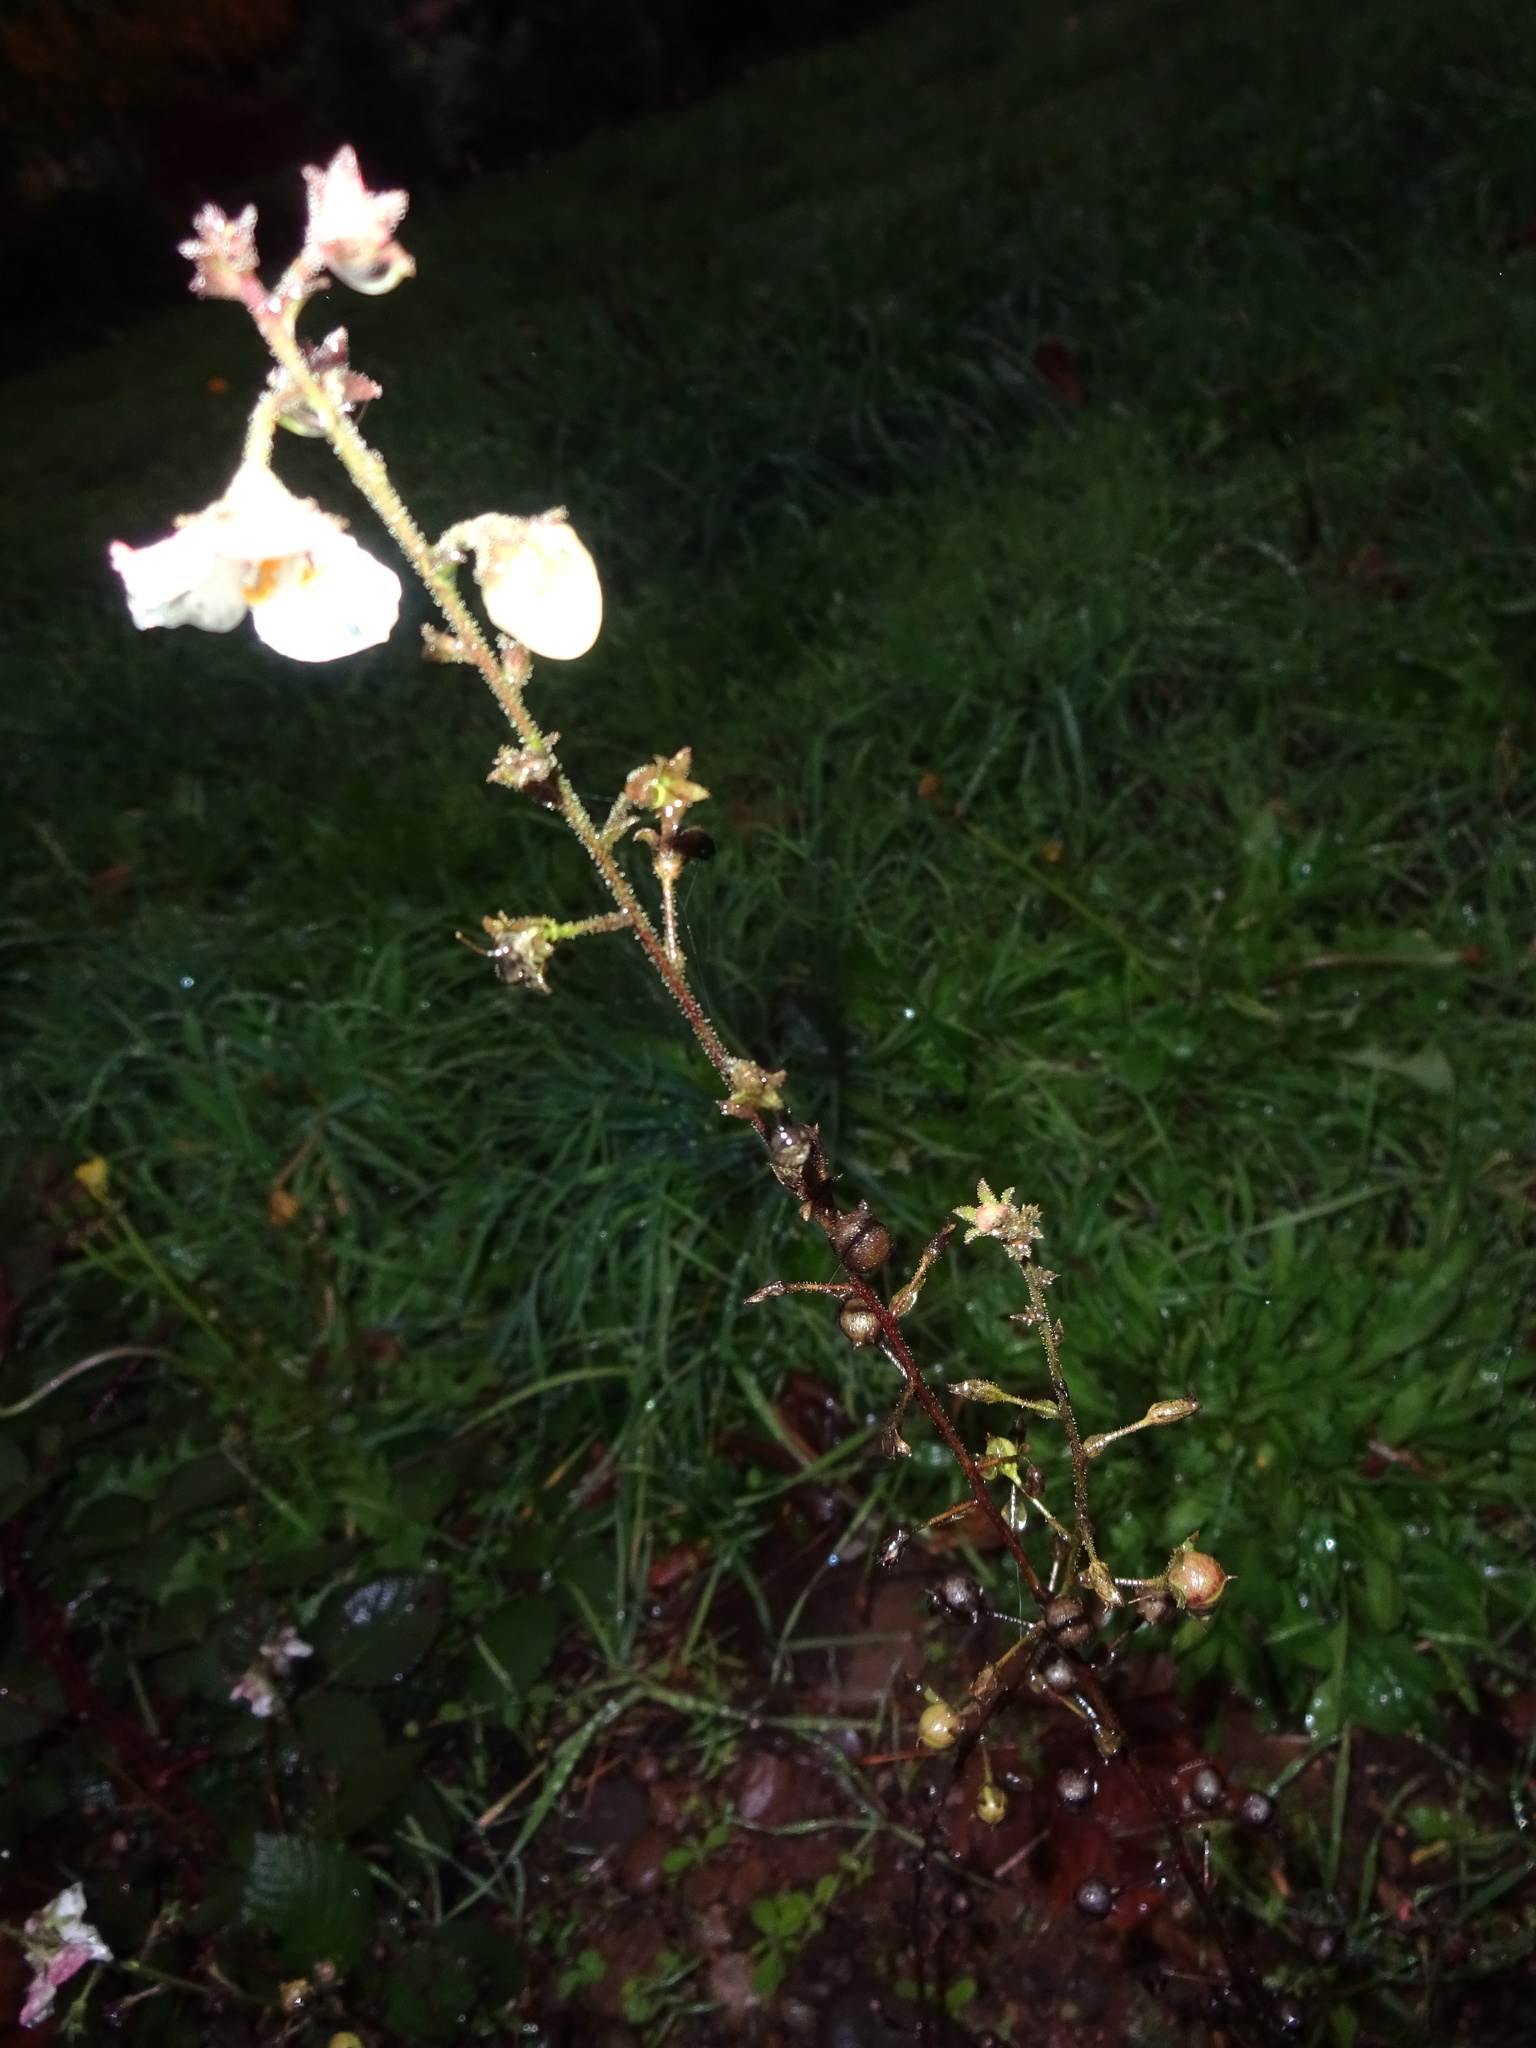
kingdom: Plantae
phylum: Tracheophyta
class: Magnoliopsida
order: Lamiales
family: Scrophulariaceae
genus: Verbascum
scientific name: Verbascum blattaria
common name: Moth mullein
